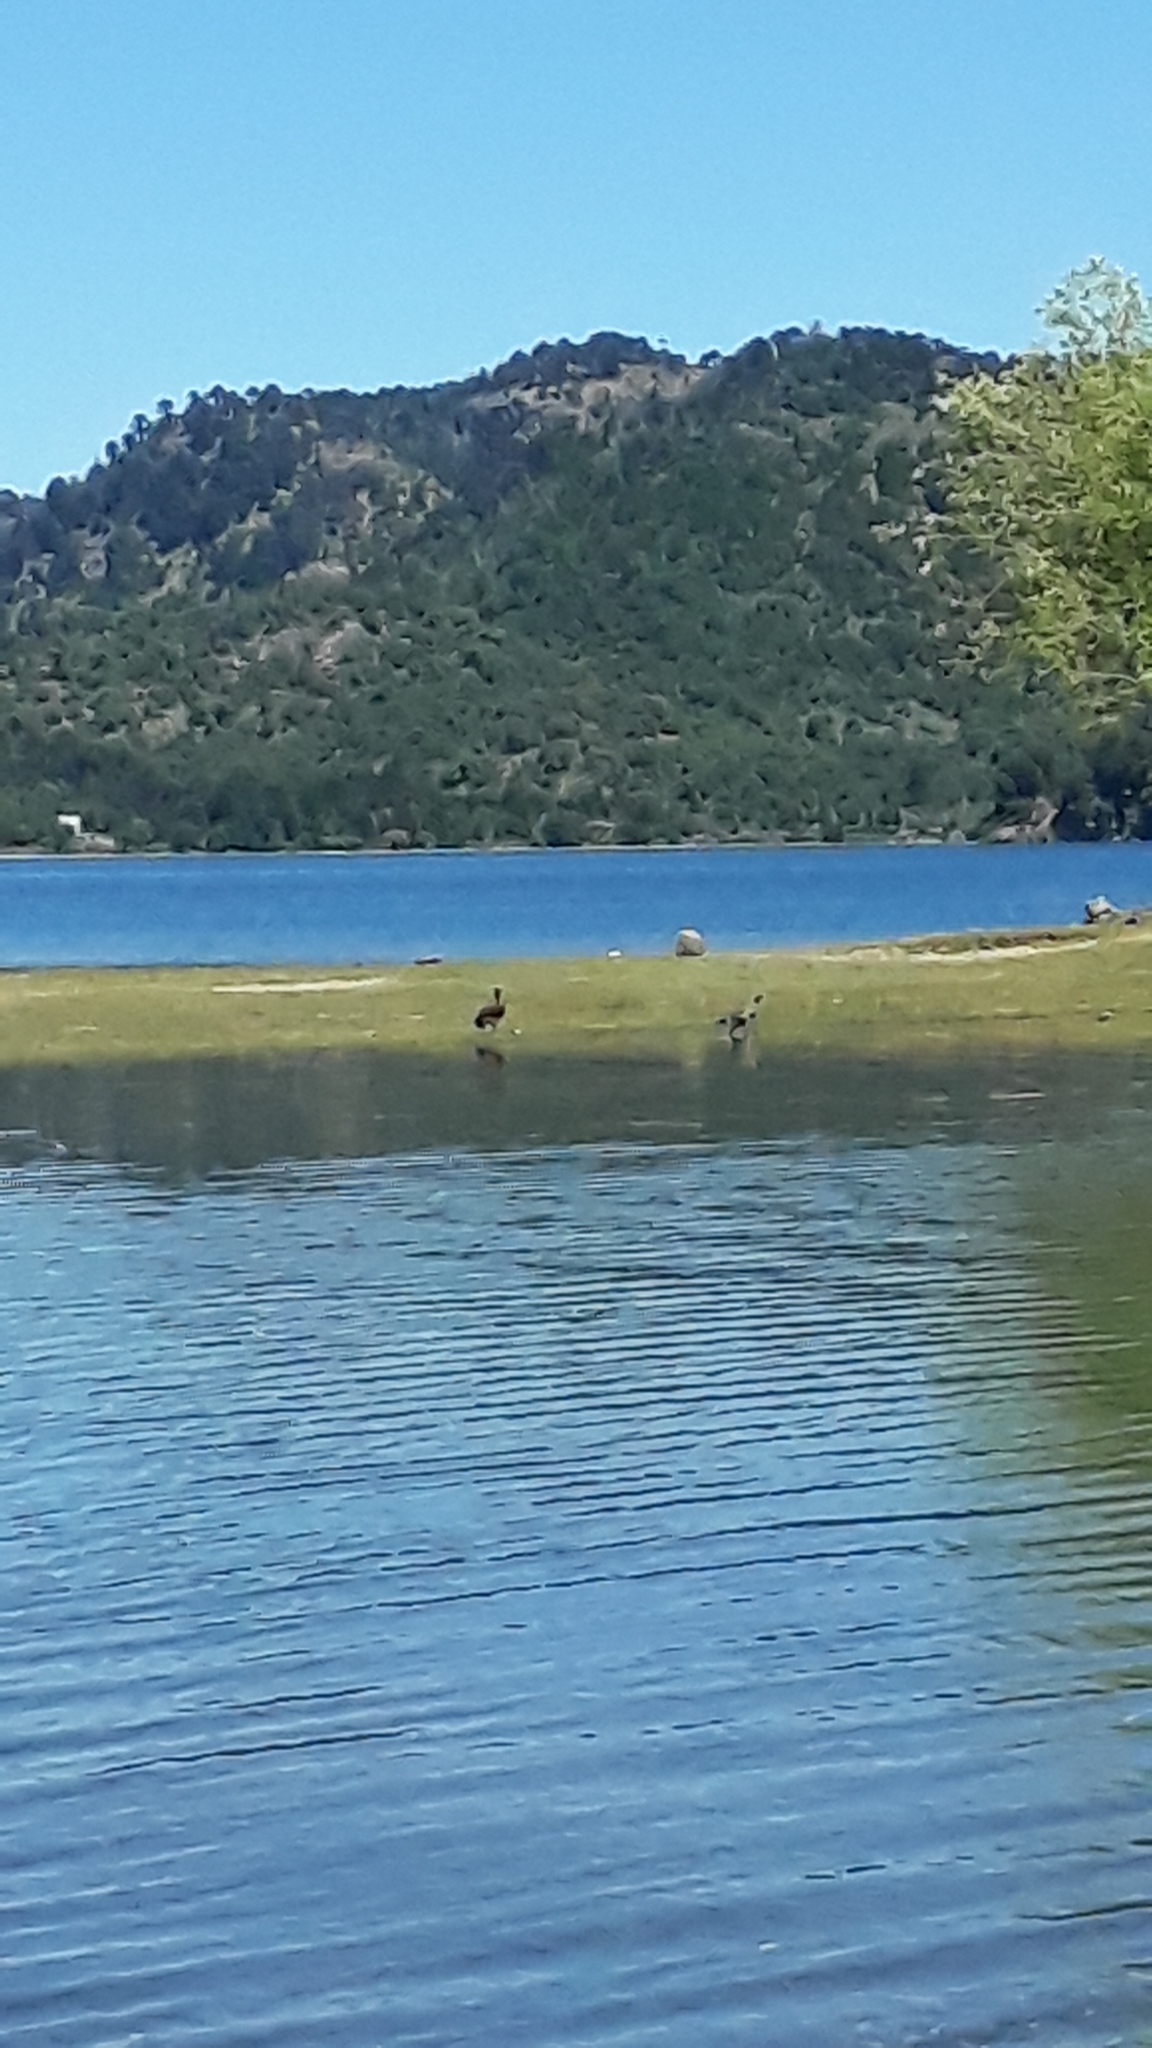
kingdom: Animalia
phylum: Chordata
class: Aves
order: Anseriformes
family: Anatidae
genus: Chloephaga
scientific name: Chloephaga poliocephala
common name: Ashy-headed goose
